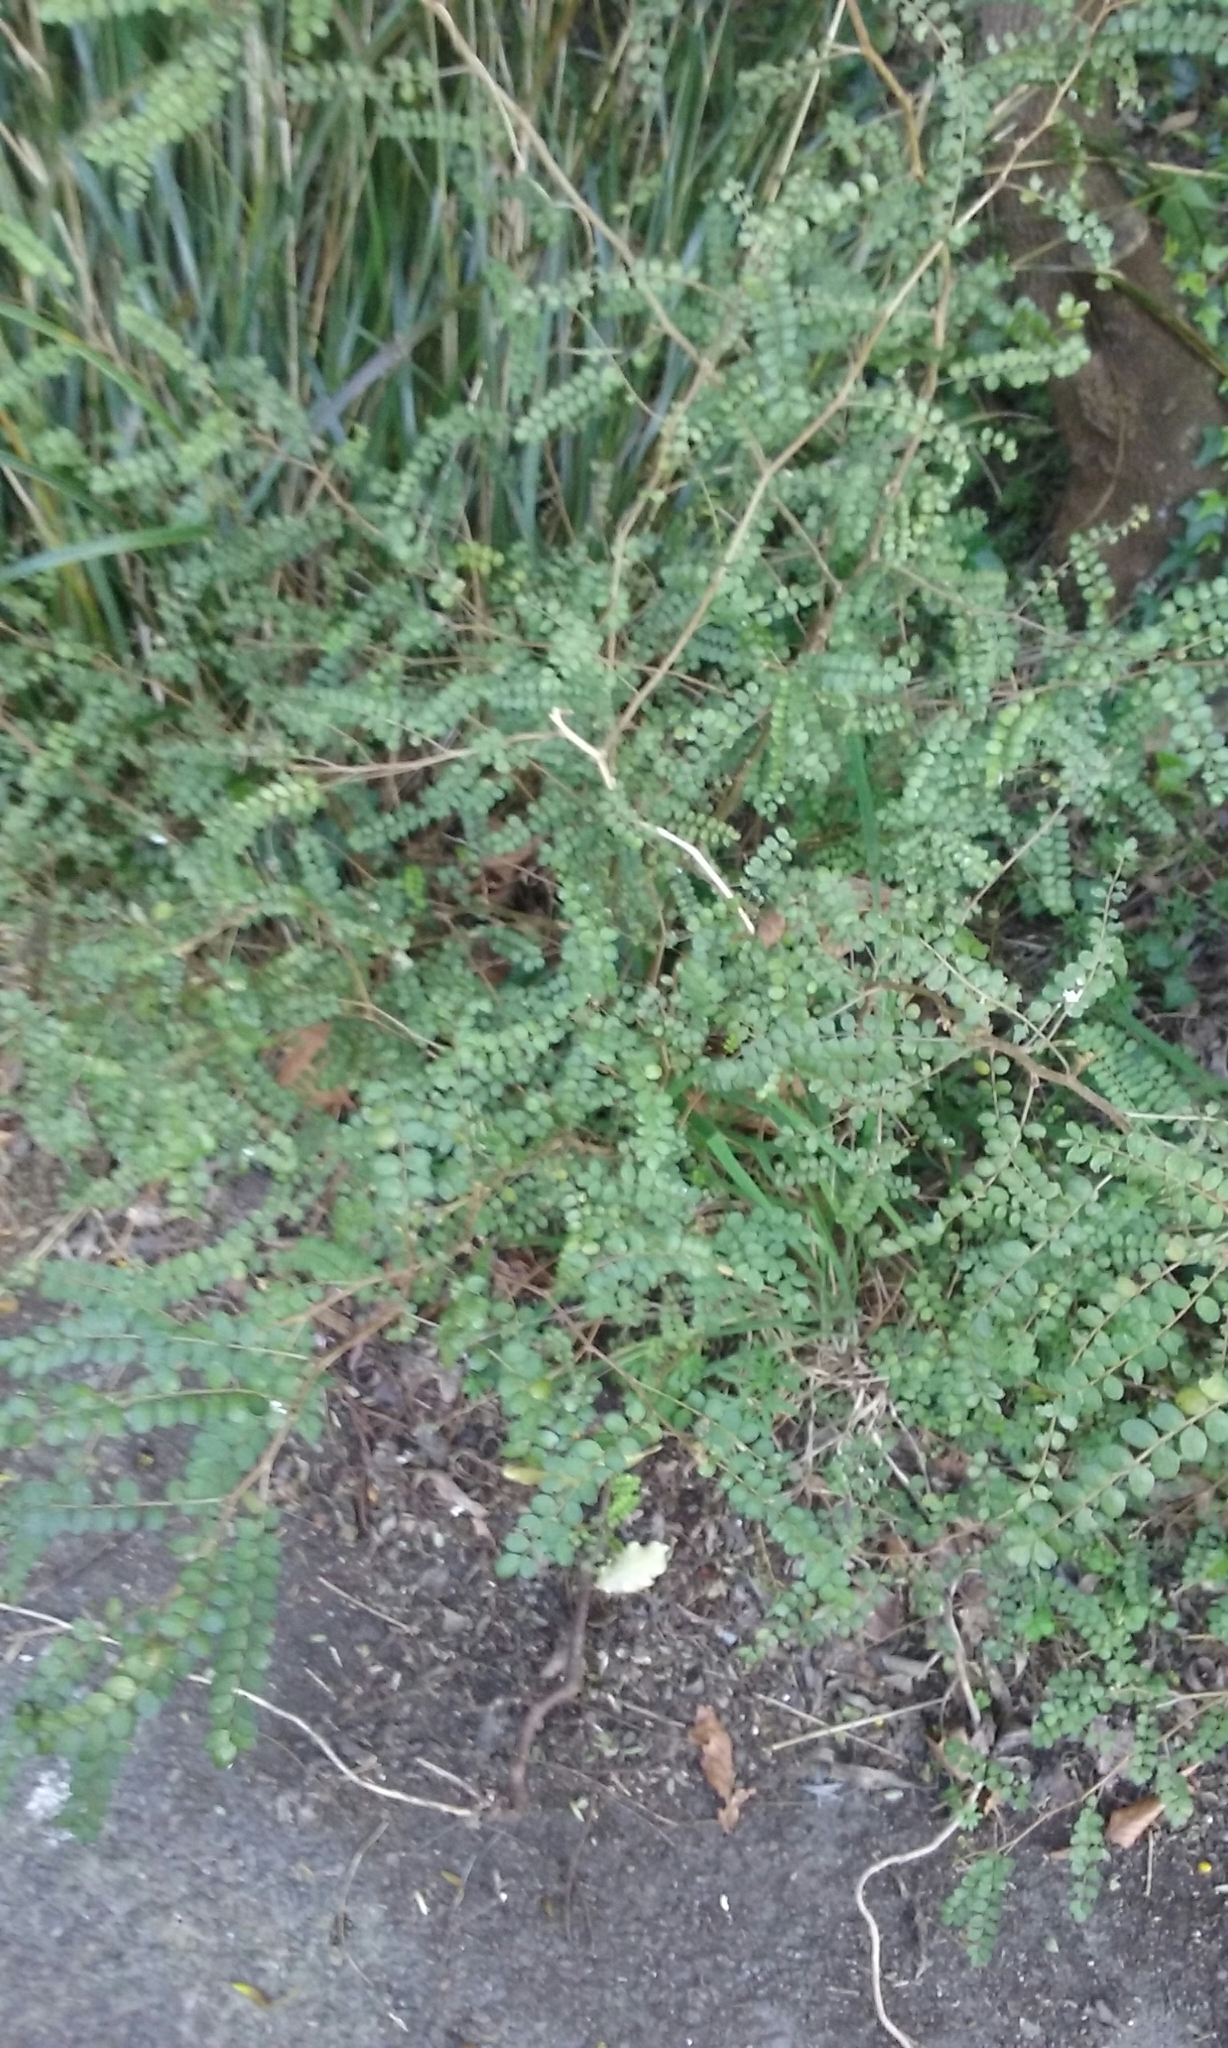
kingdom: Plantae
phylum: Tracheophyta
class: Magnoliopsida
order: Fabales
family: Fabaceae
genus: Sophora
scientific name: Sophora microphylla
